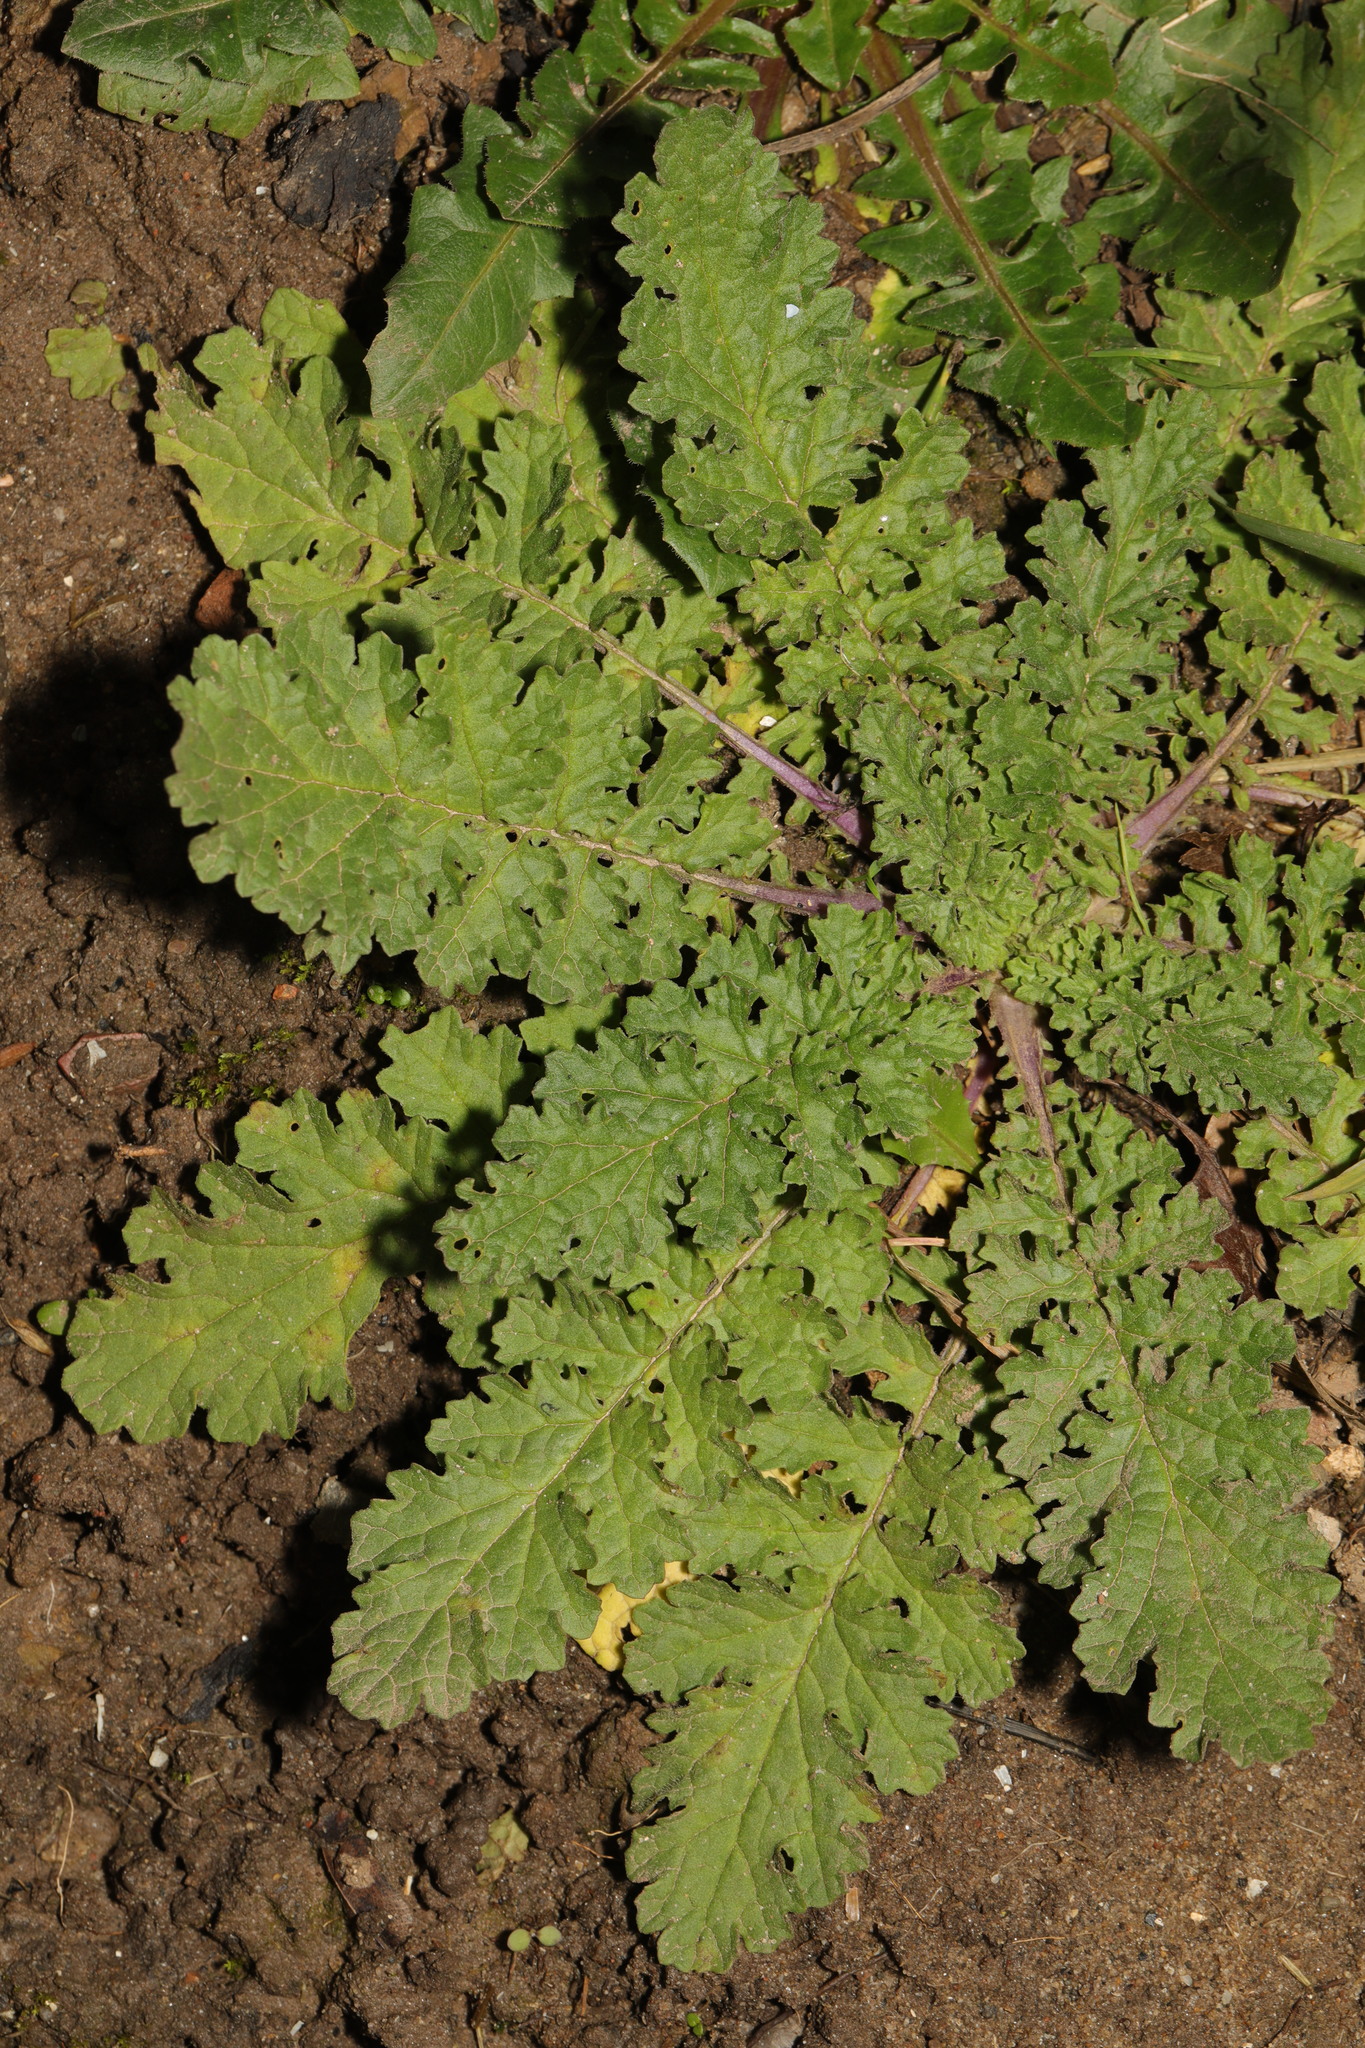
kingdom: Plantae
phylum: Tracheophyta
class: Magnoliopsida
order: Asterales
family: Asteraceae
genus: Jacobaea
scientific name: Jacobaea vulgaris
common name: Stinking willie
